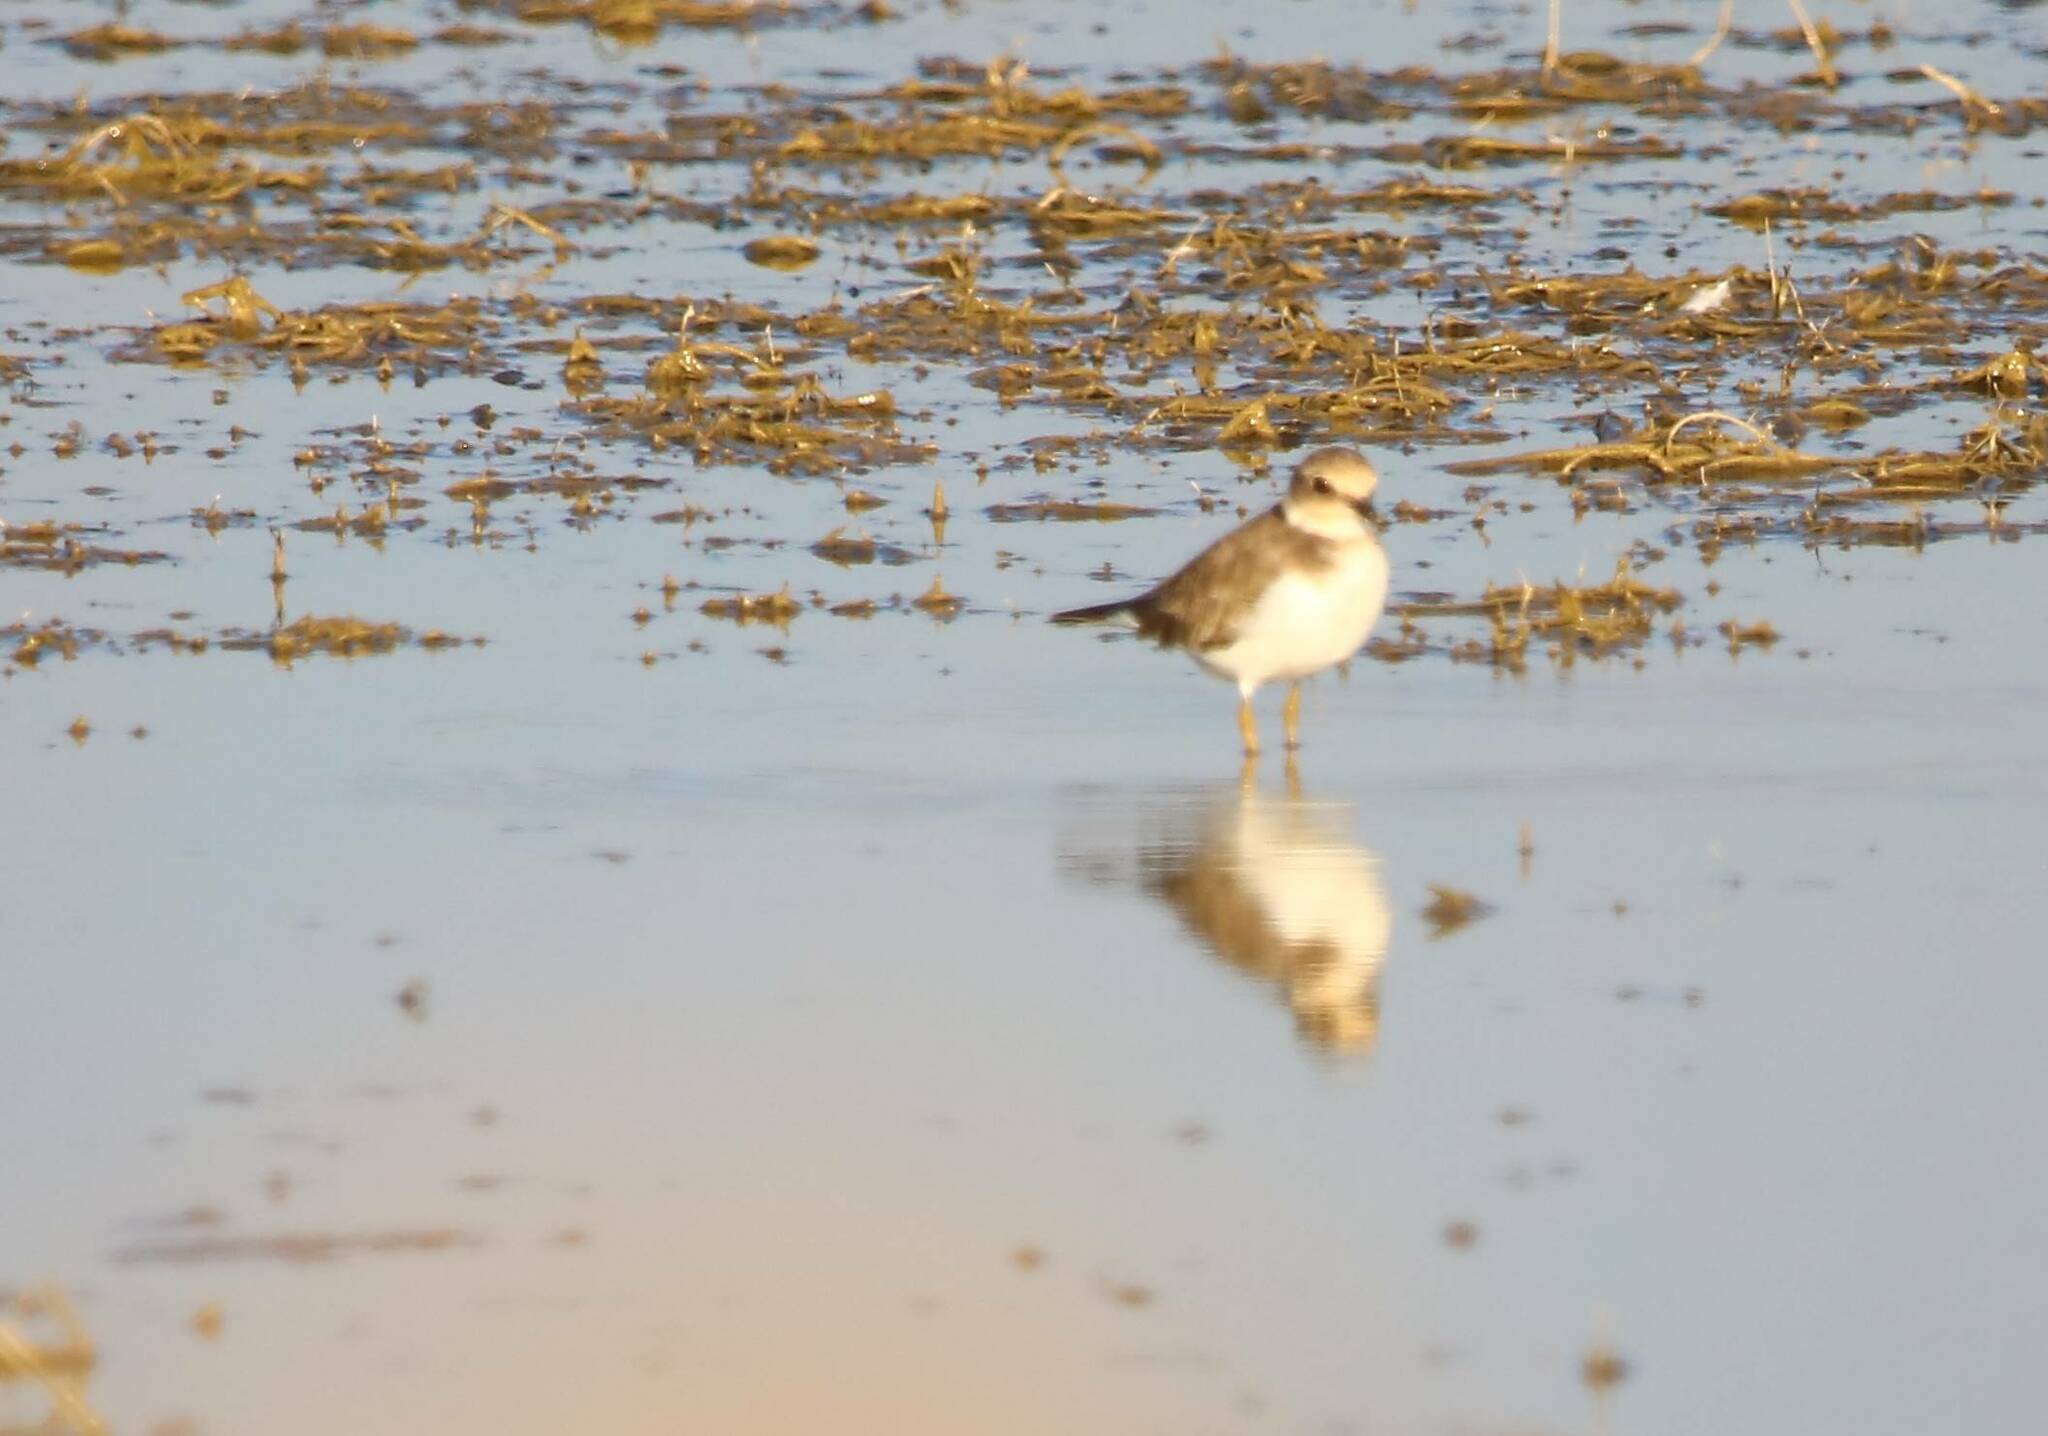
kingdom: Animalia
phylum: Chordata
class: Aves
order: Charadriiformes
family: Charadriidae
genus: Charadrius
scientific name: Charadrius dubius
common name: Little ringed plover
